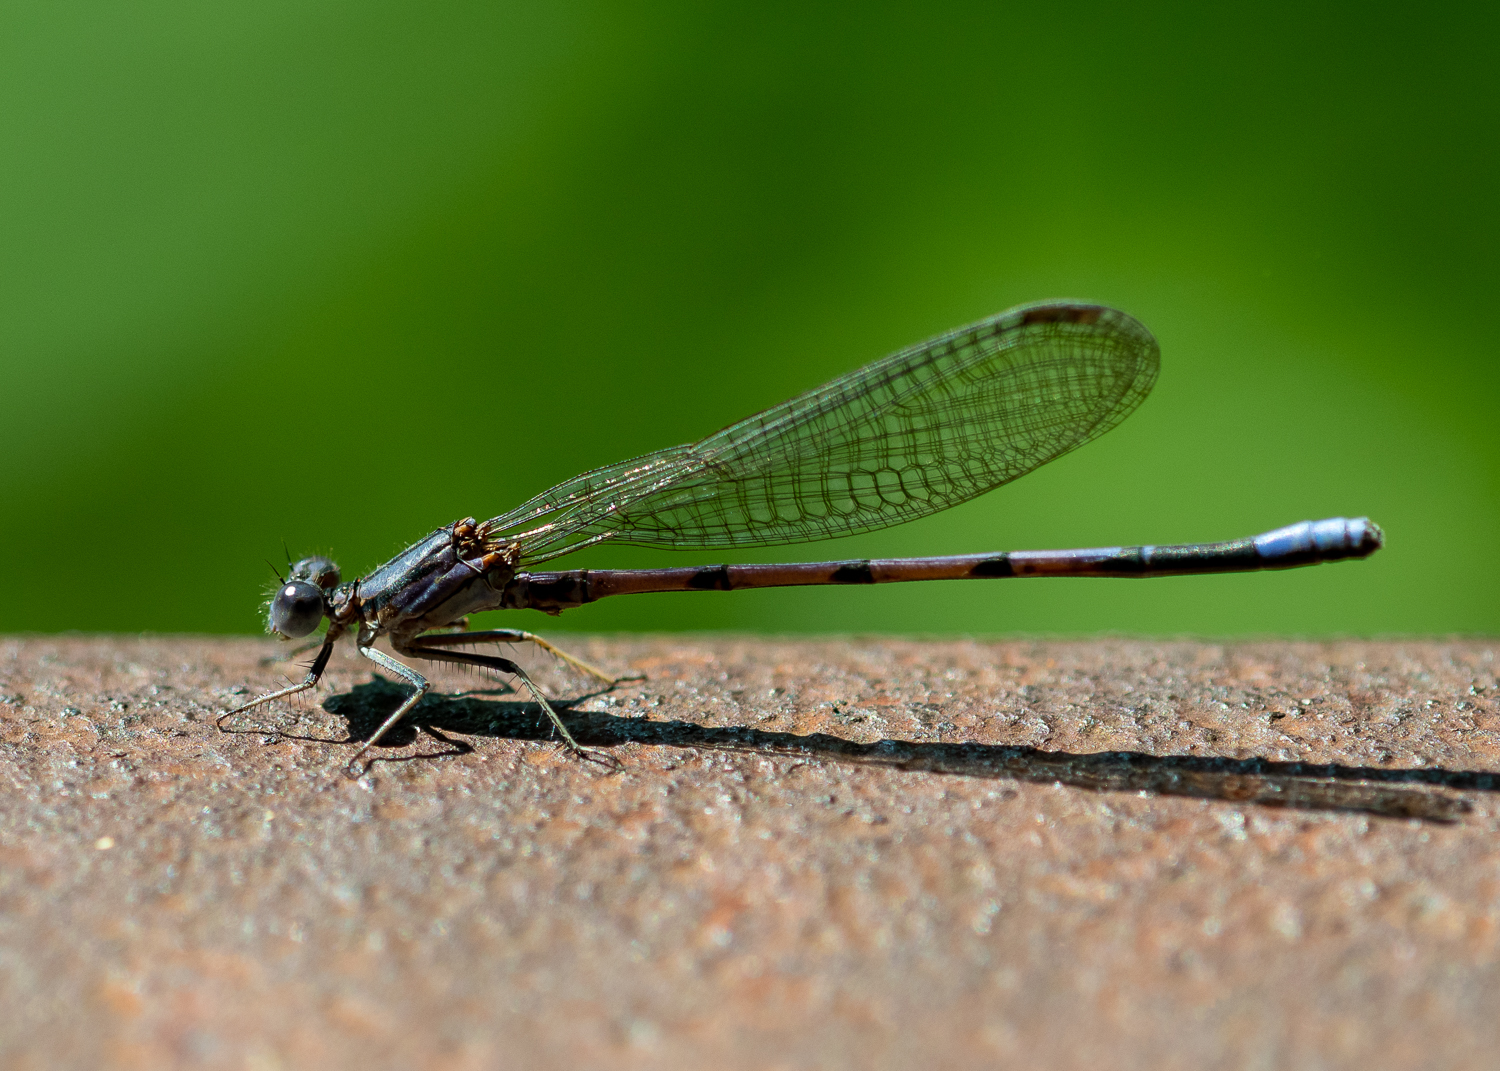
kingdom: Animalia
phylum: Arthropoda
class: Insecta
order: Odonata
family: Coenagrionidae
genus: Argia
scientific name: Argia fumipennis
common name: Variable dancer
